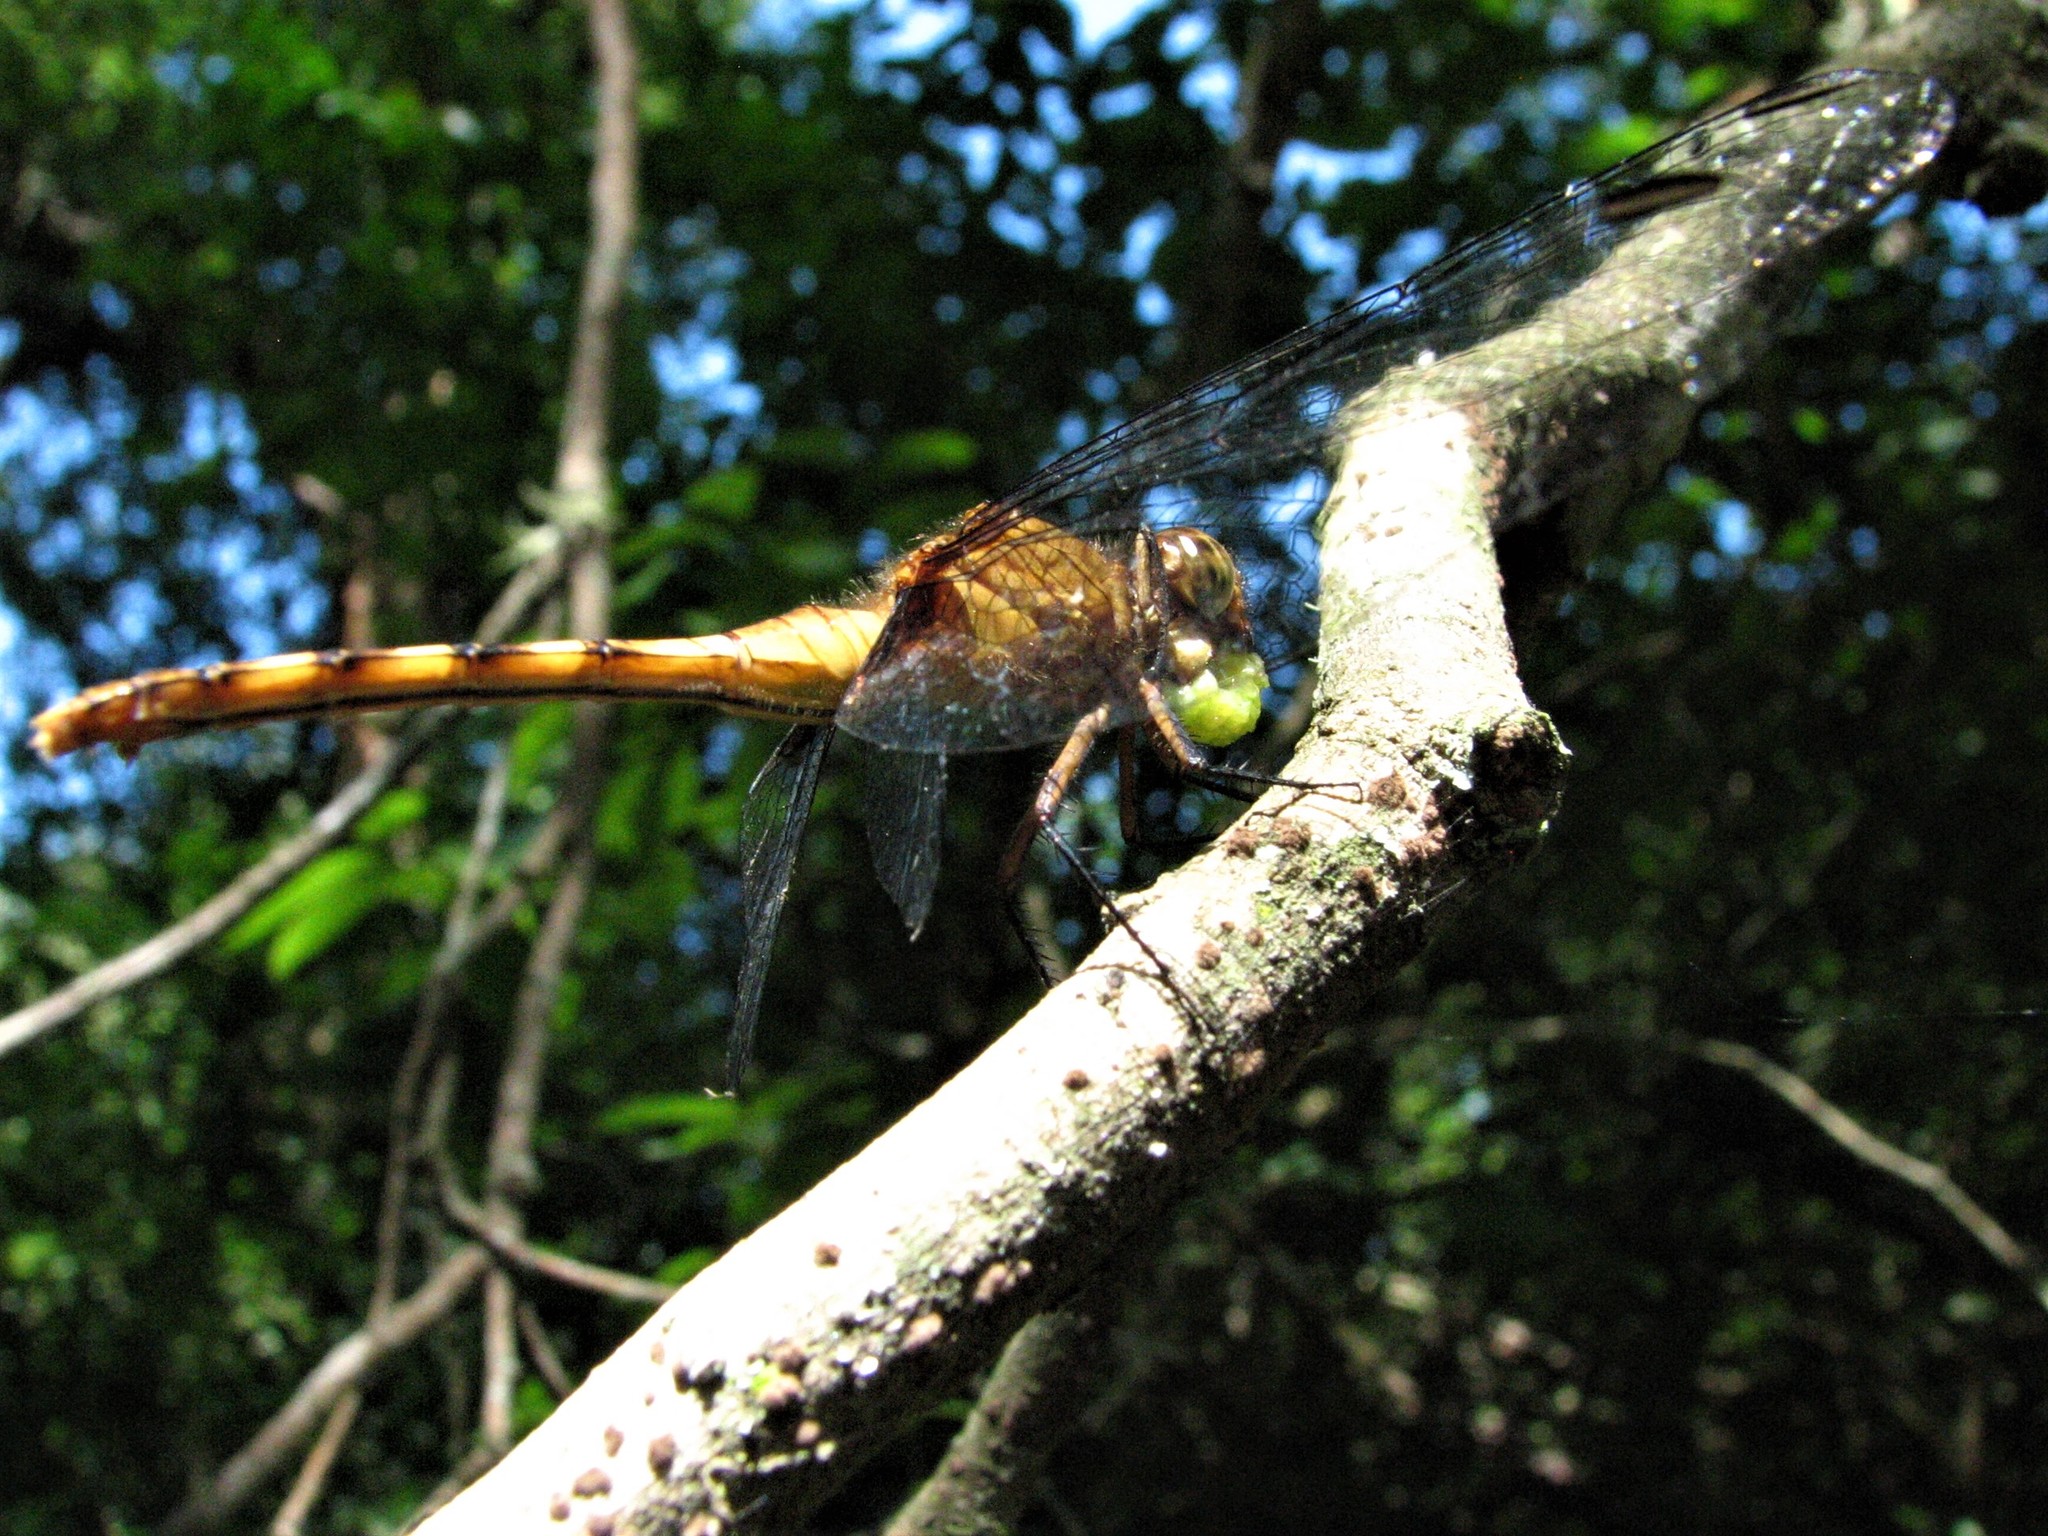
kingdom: Animalia
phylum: Arthropoda
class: Insecta
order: Odonata
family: Libellulidae
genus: Erythemis
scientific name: Erythemis attala
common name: Black pondhawk
